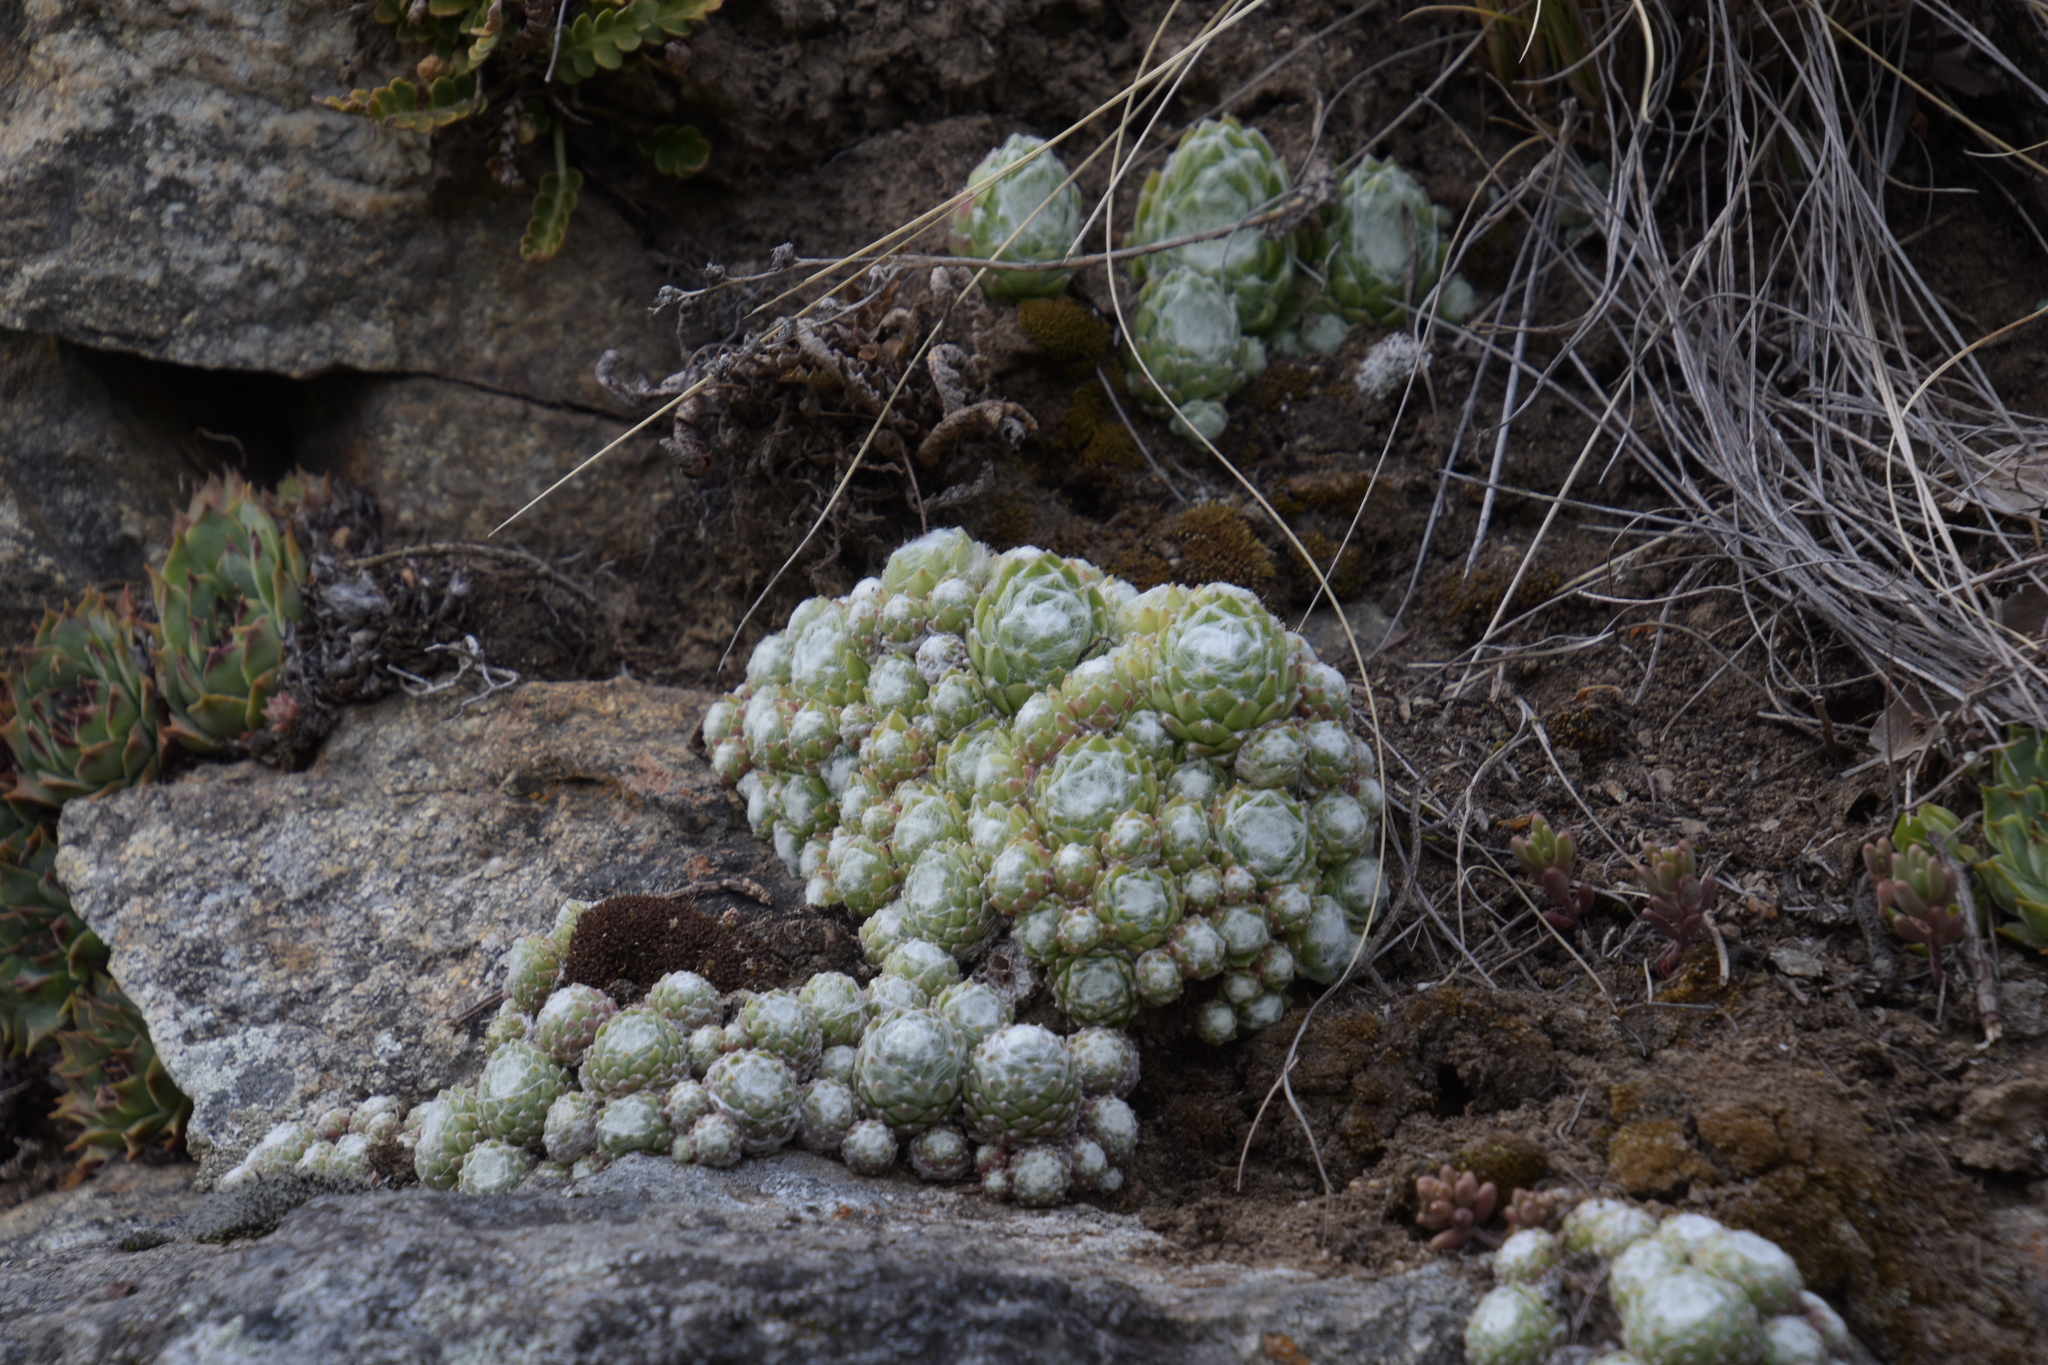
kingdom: Plantae
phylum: Tracheophyta
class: Magnoliopsida
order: Saxifragales
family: Crassulaceae
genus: Sempervivum
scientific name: Sempervivum arachnoideum
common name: Cobweb house-leek
